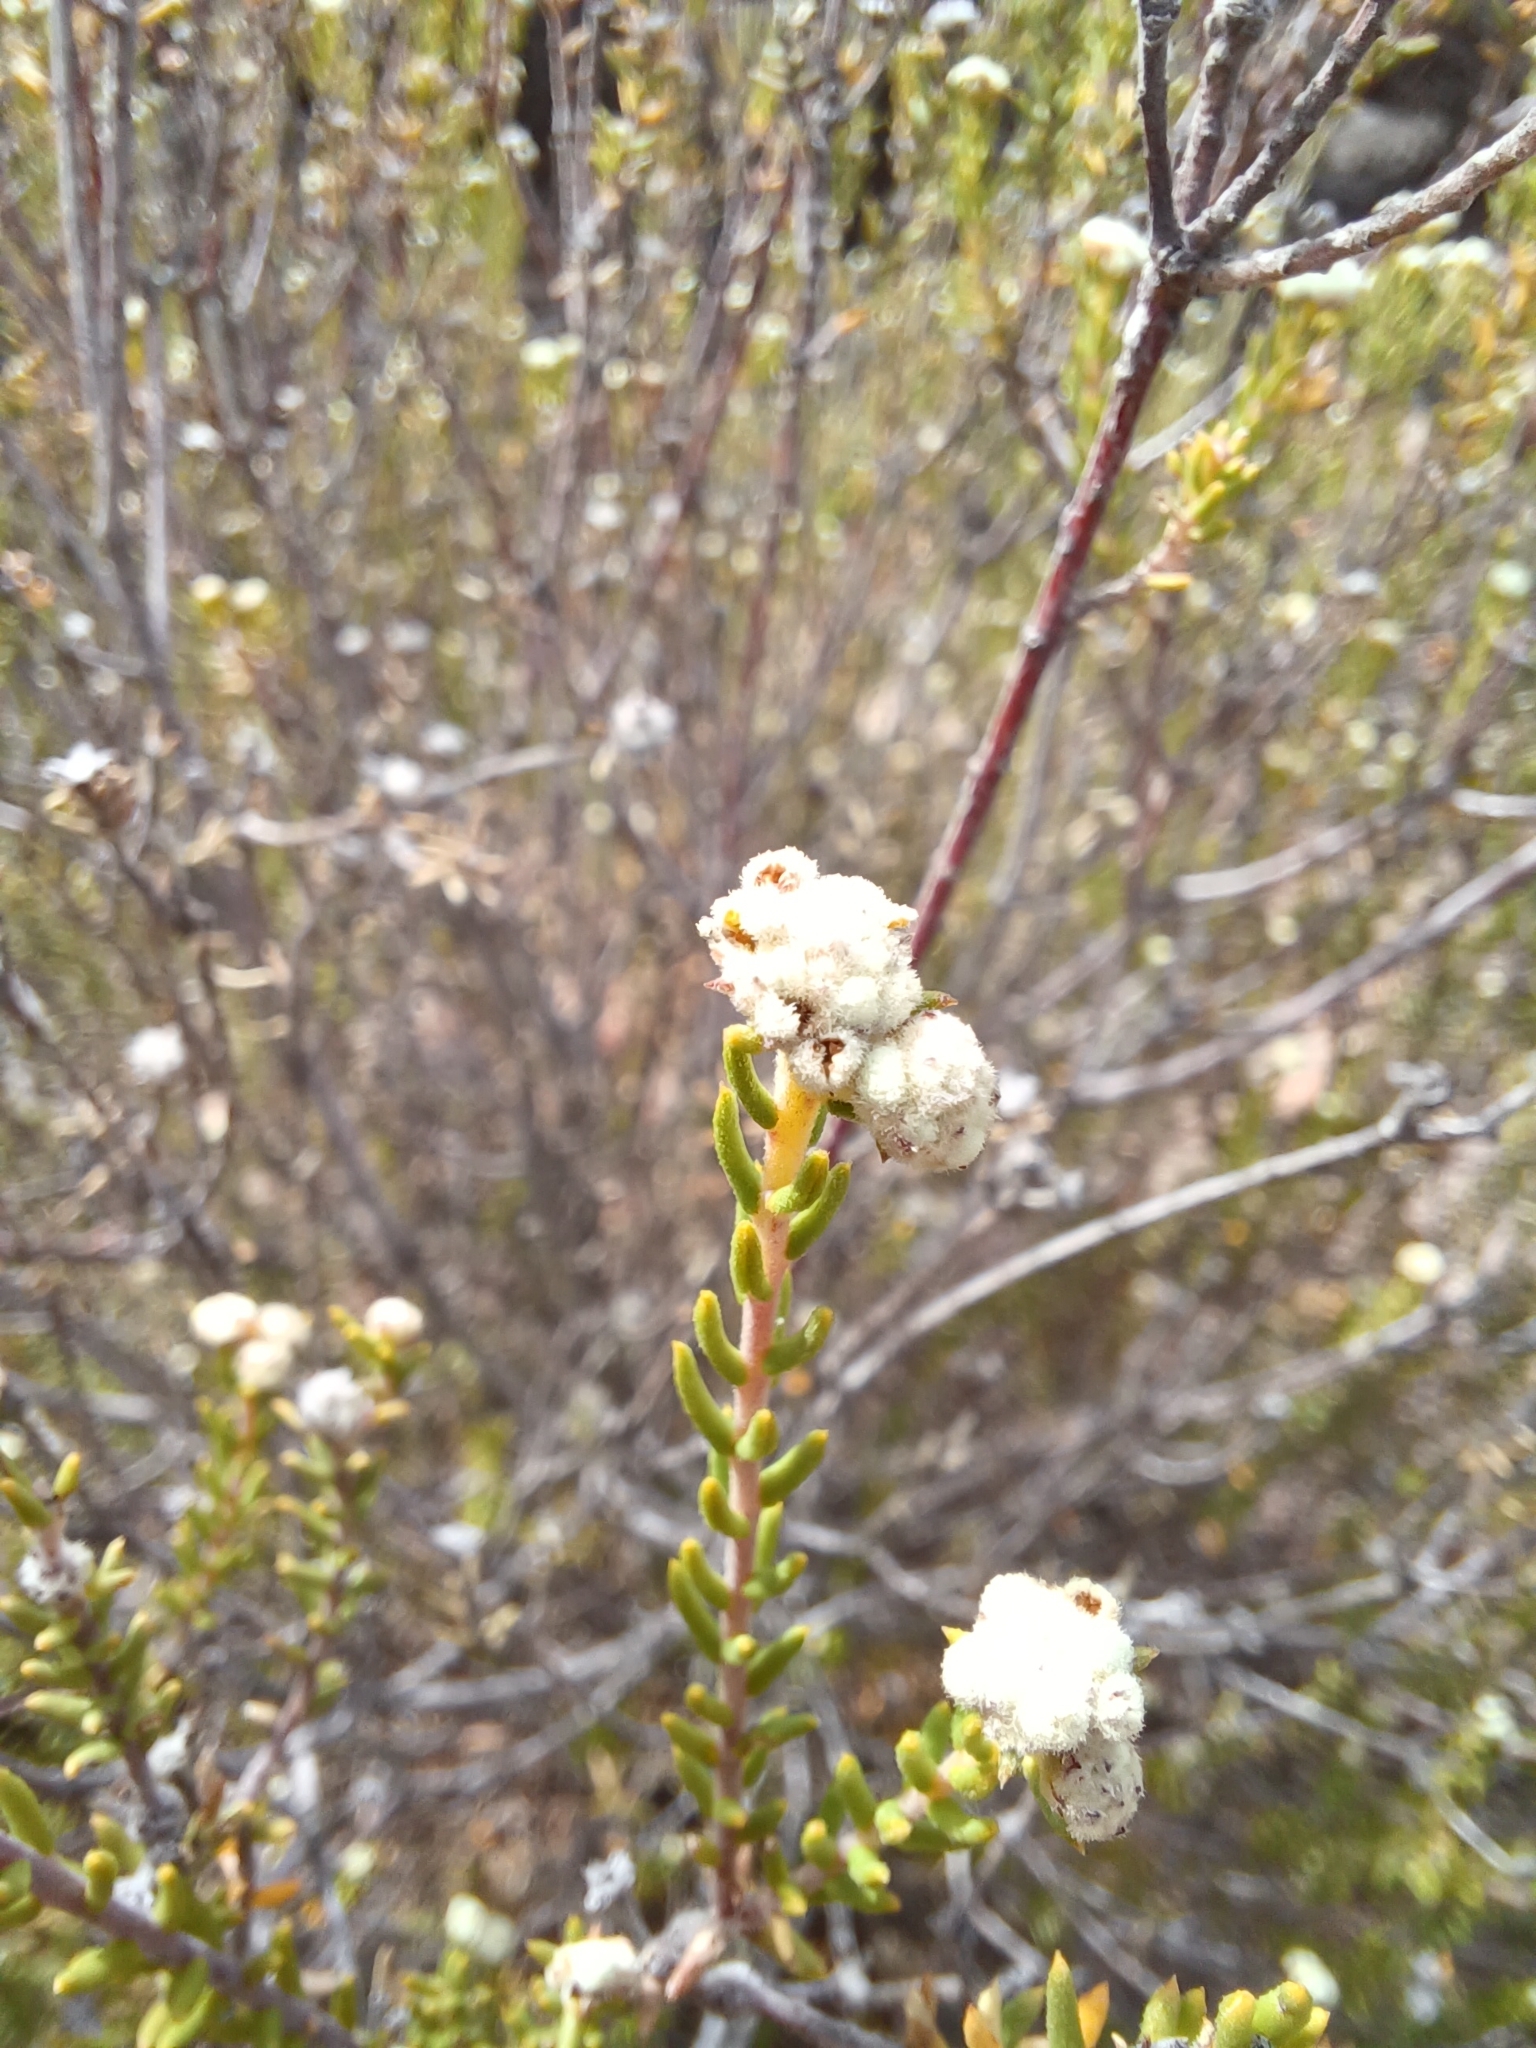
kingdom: Plantae
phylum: Tracheophyta
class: Magnoliopsida
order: Rosales
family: Rhamnaceae
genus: Phylica
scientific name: Phylica rogersii
